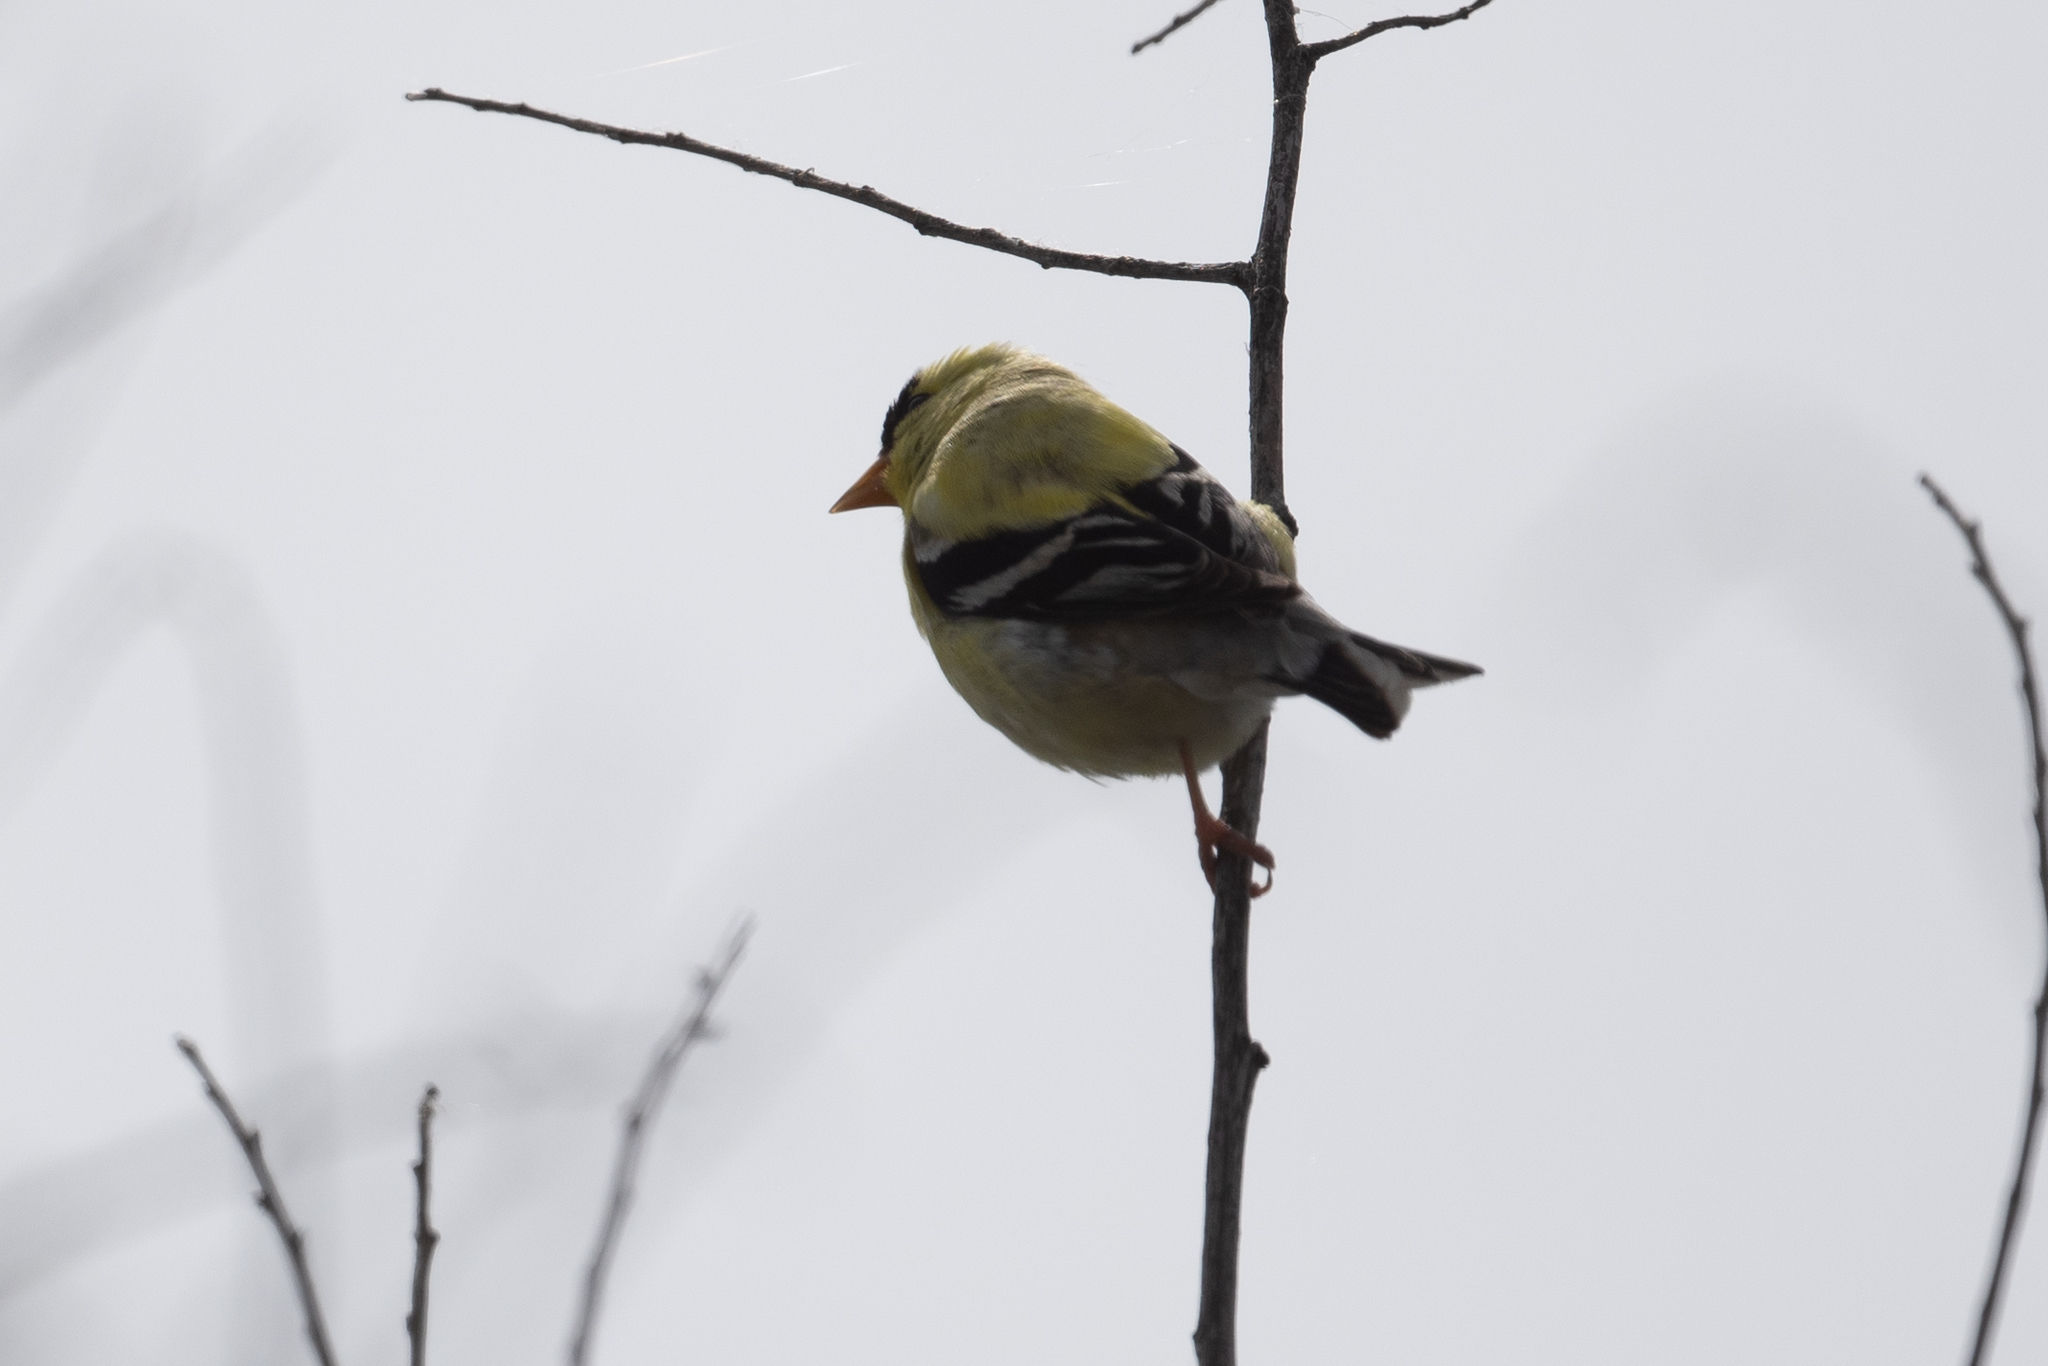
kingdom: Animalia
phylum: Chordata
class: Aves
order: Passeriformes
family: Fringillidae
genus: Spinus
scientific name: Spinus tristis
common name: American goldfinch
